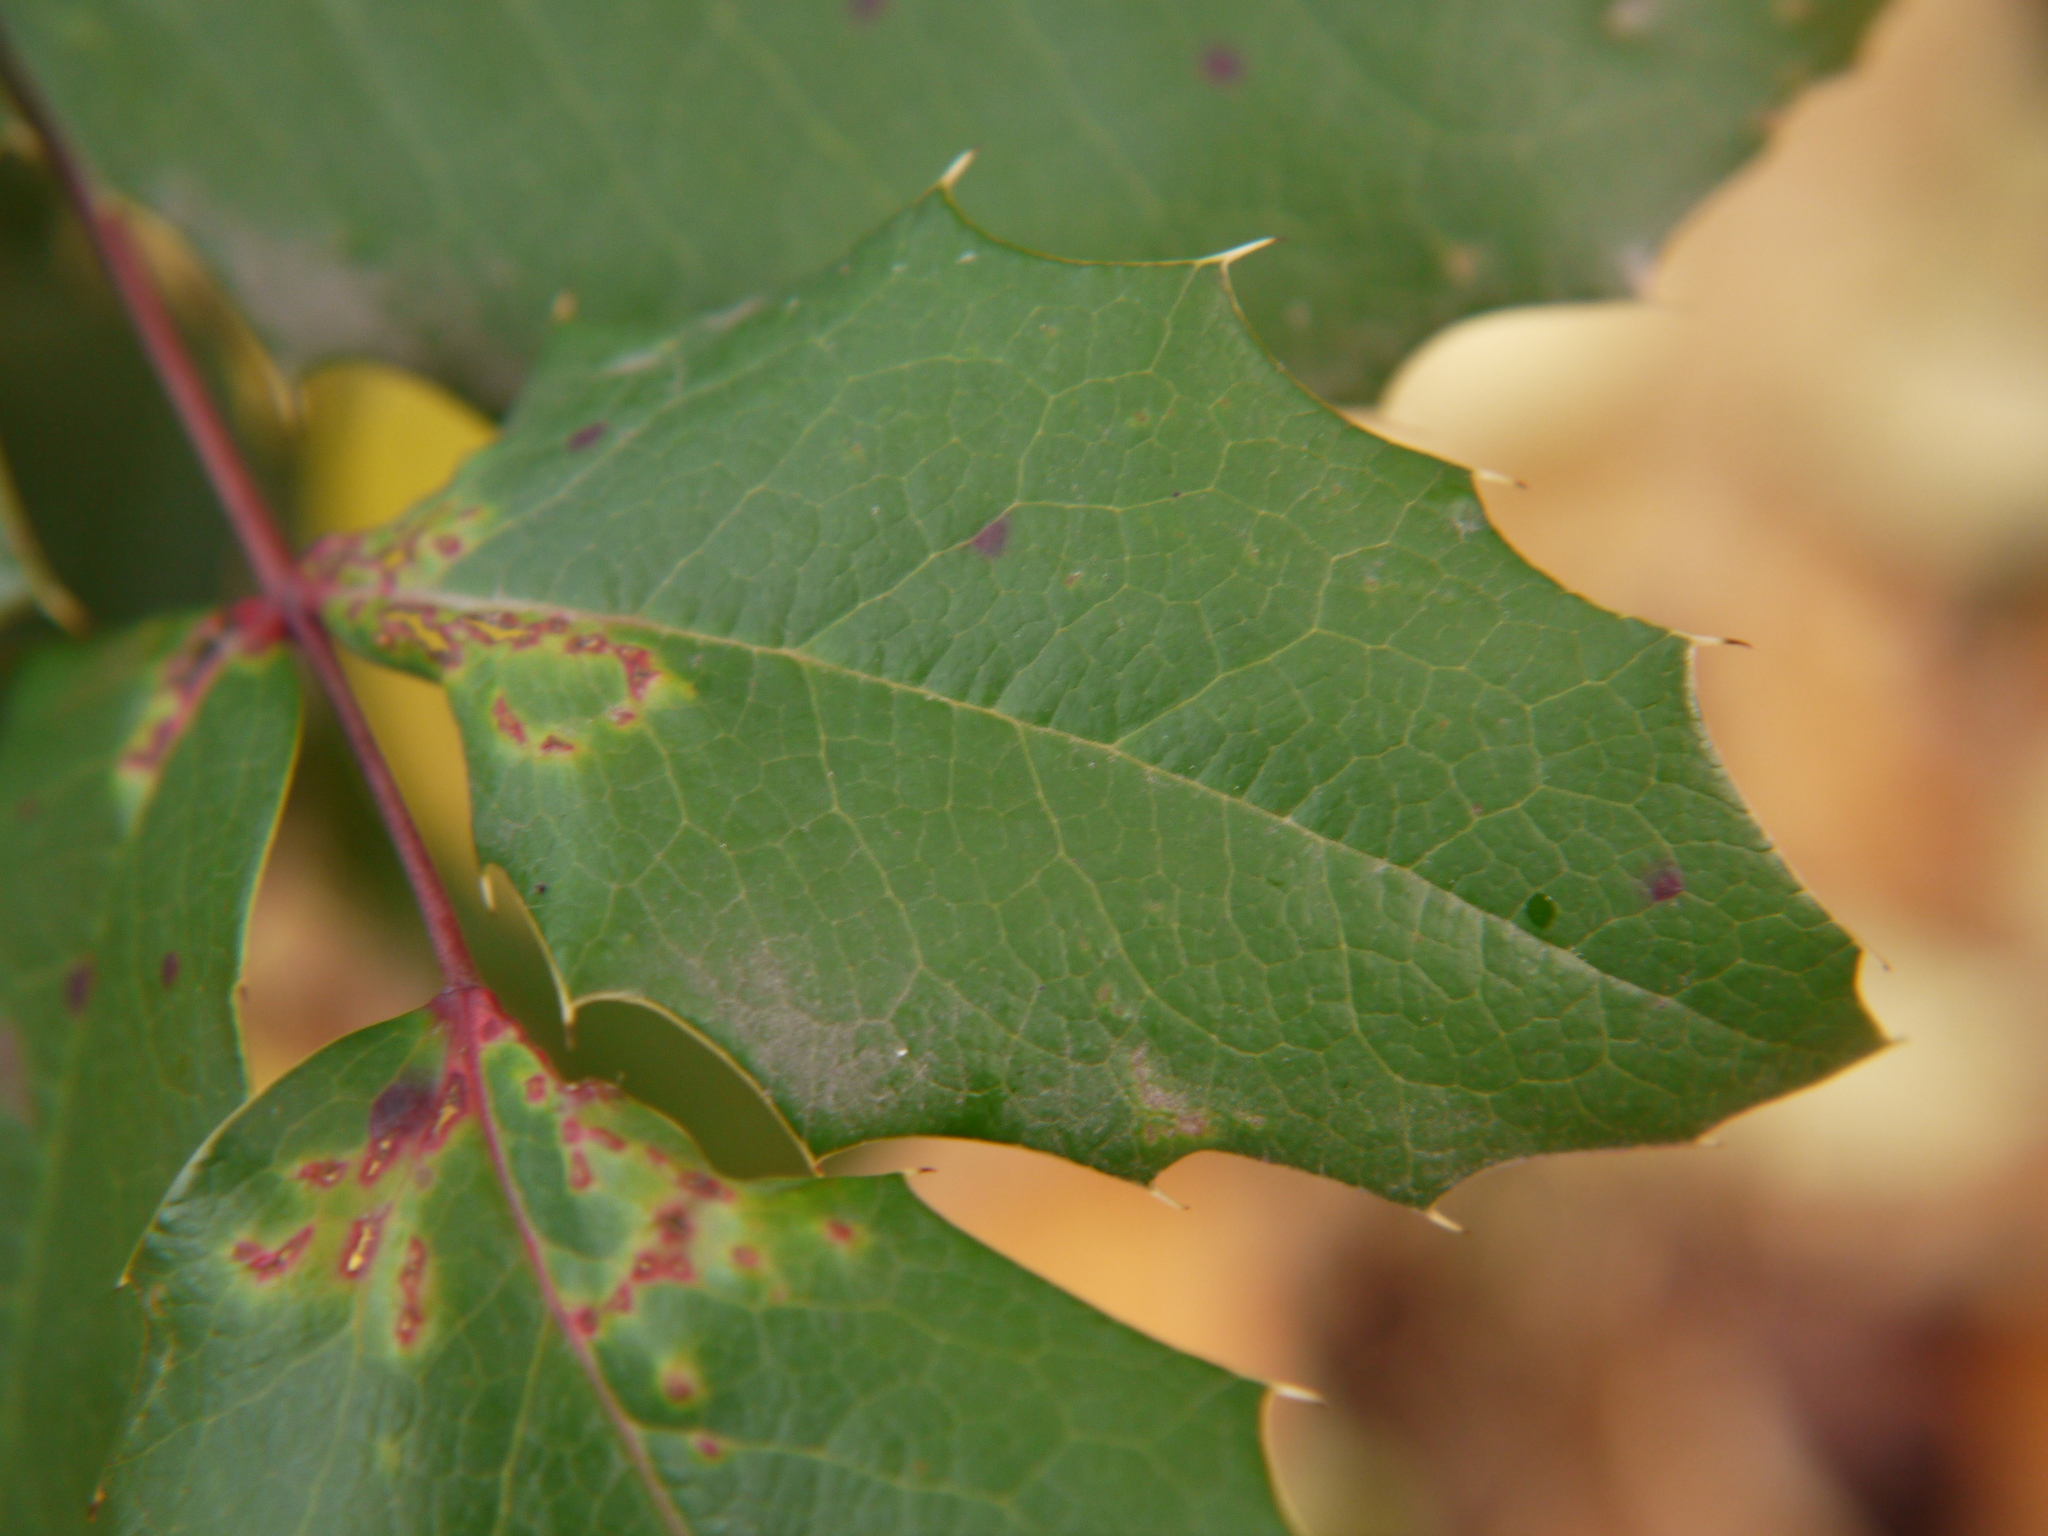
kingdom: Plantae
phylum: Tracheophyta
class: Magnoliopsida
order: Ranunculales
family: Berberidaceae
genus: Mahonia
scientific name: Mahonia aquifolium
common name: Oregon-grape
